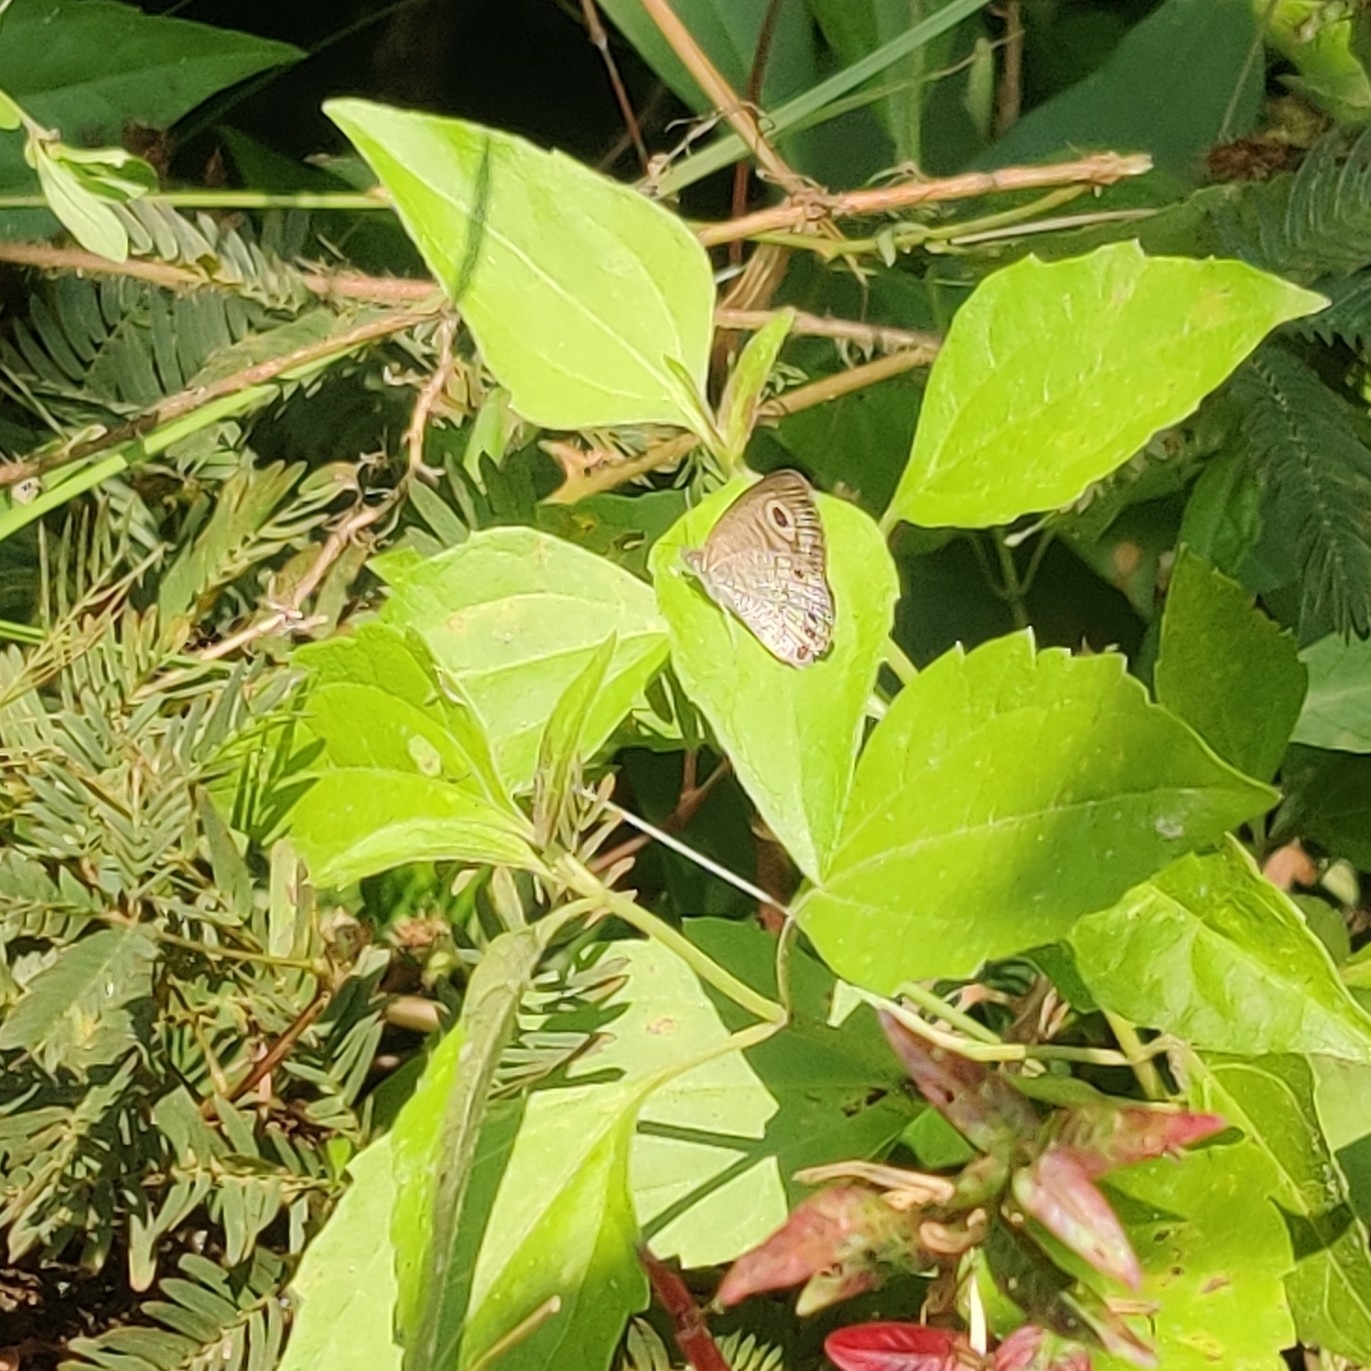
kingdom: Animalia
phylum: Arthropoda
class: Insecta
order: Lepidoptera
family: Nymphalidae
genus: Ypthima
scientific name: Ypthima huebneri
